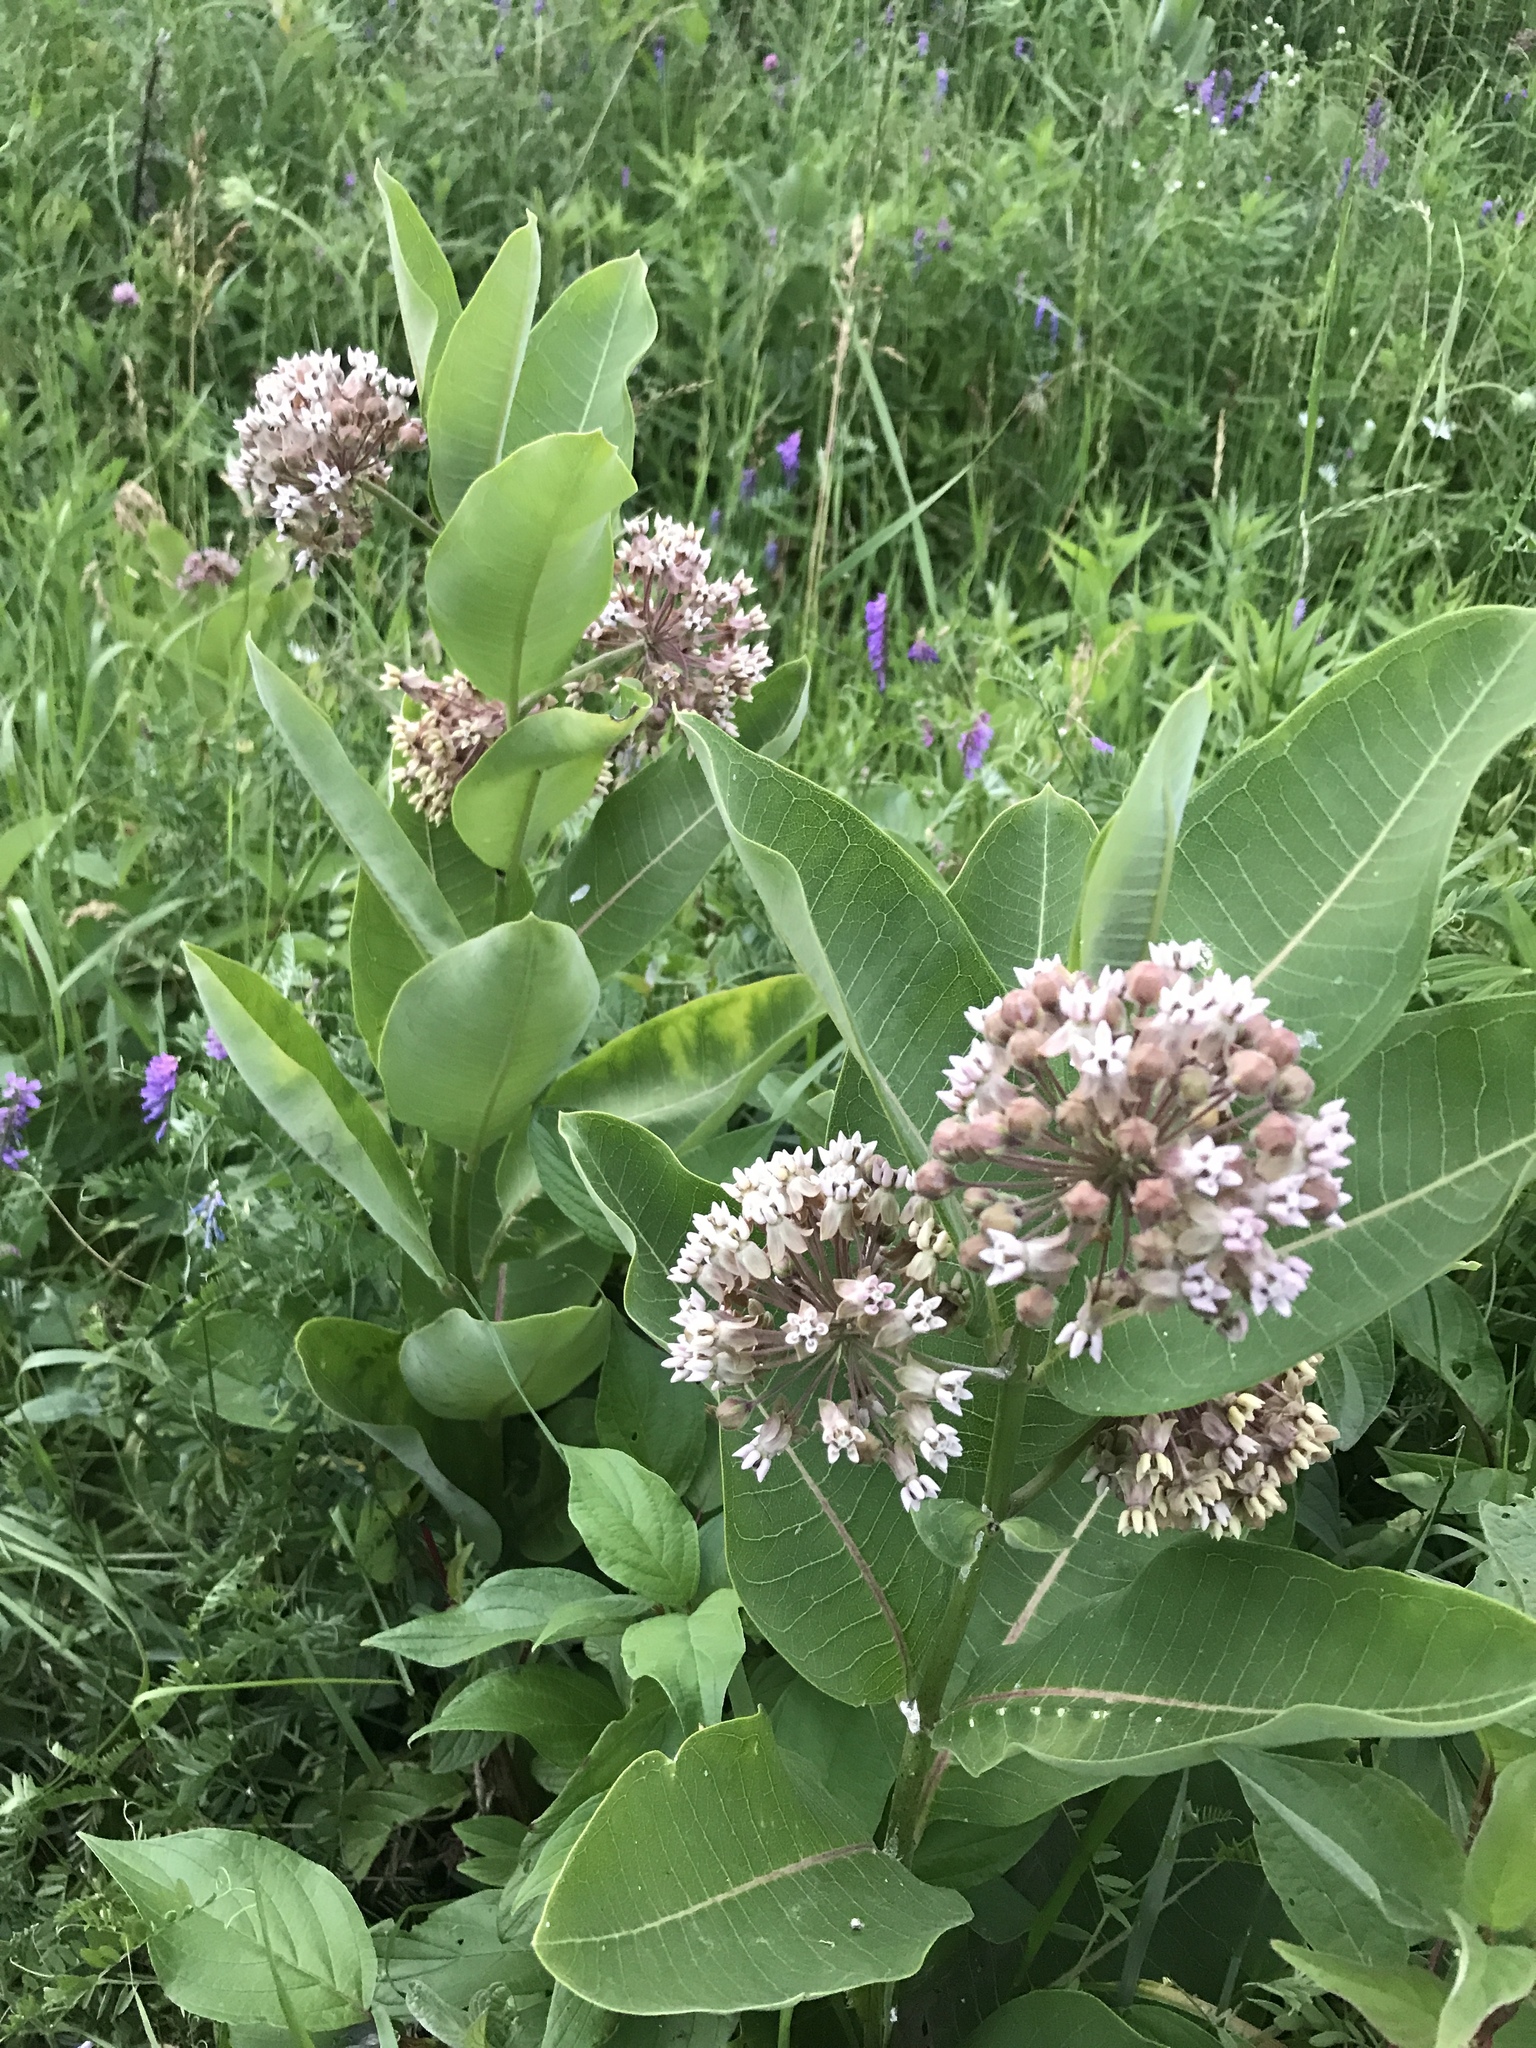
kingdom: Plantae
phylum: Tracheophyta
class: Magnoliopsida
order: Gentianales
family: Apocynaceae
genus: Asclepias
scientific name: Asclepias syriaca
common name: Common milkweed
